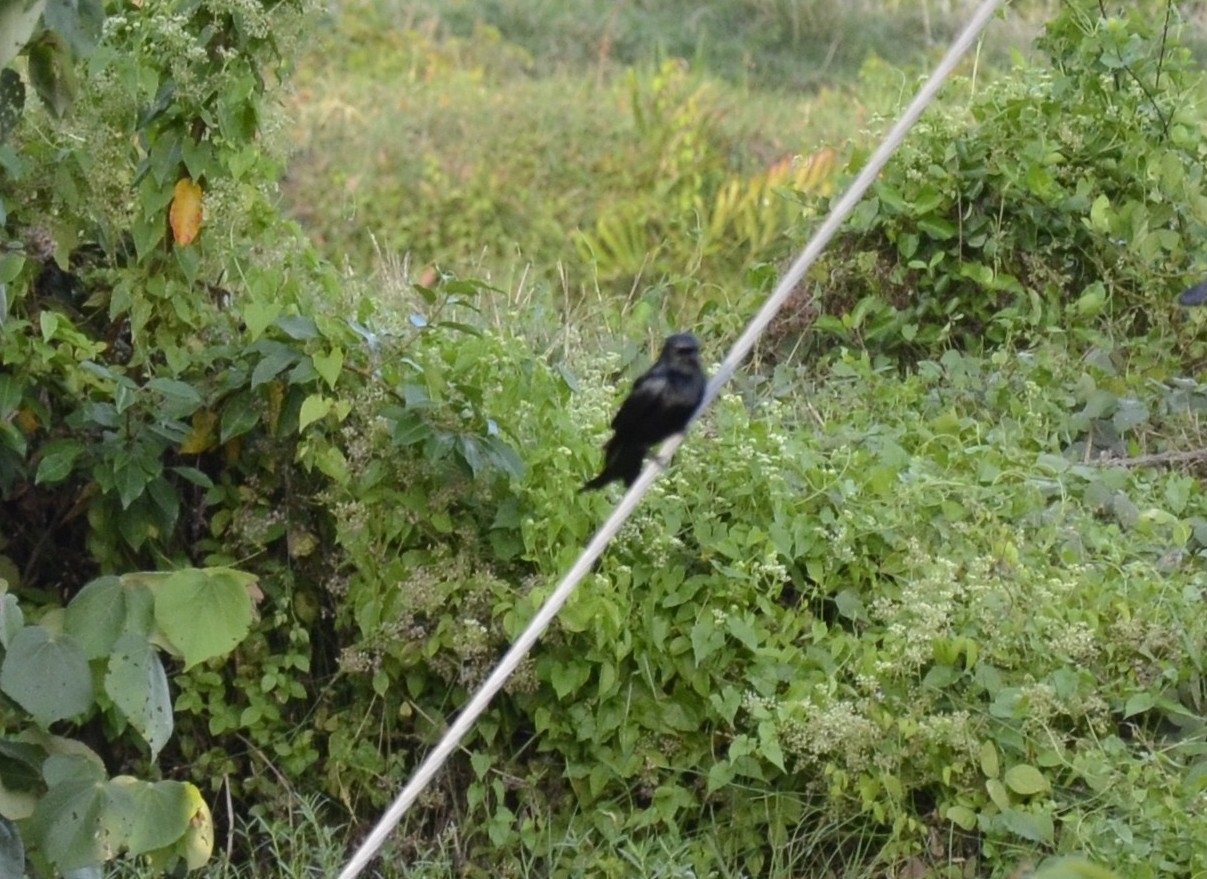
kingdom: Animalia
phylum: Chordata
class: Aves
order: Passeriformes
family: Dicruridae
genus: Dicrurus
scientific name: Dicrurus macrocercus
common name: Black drongo
